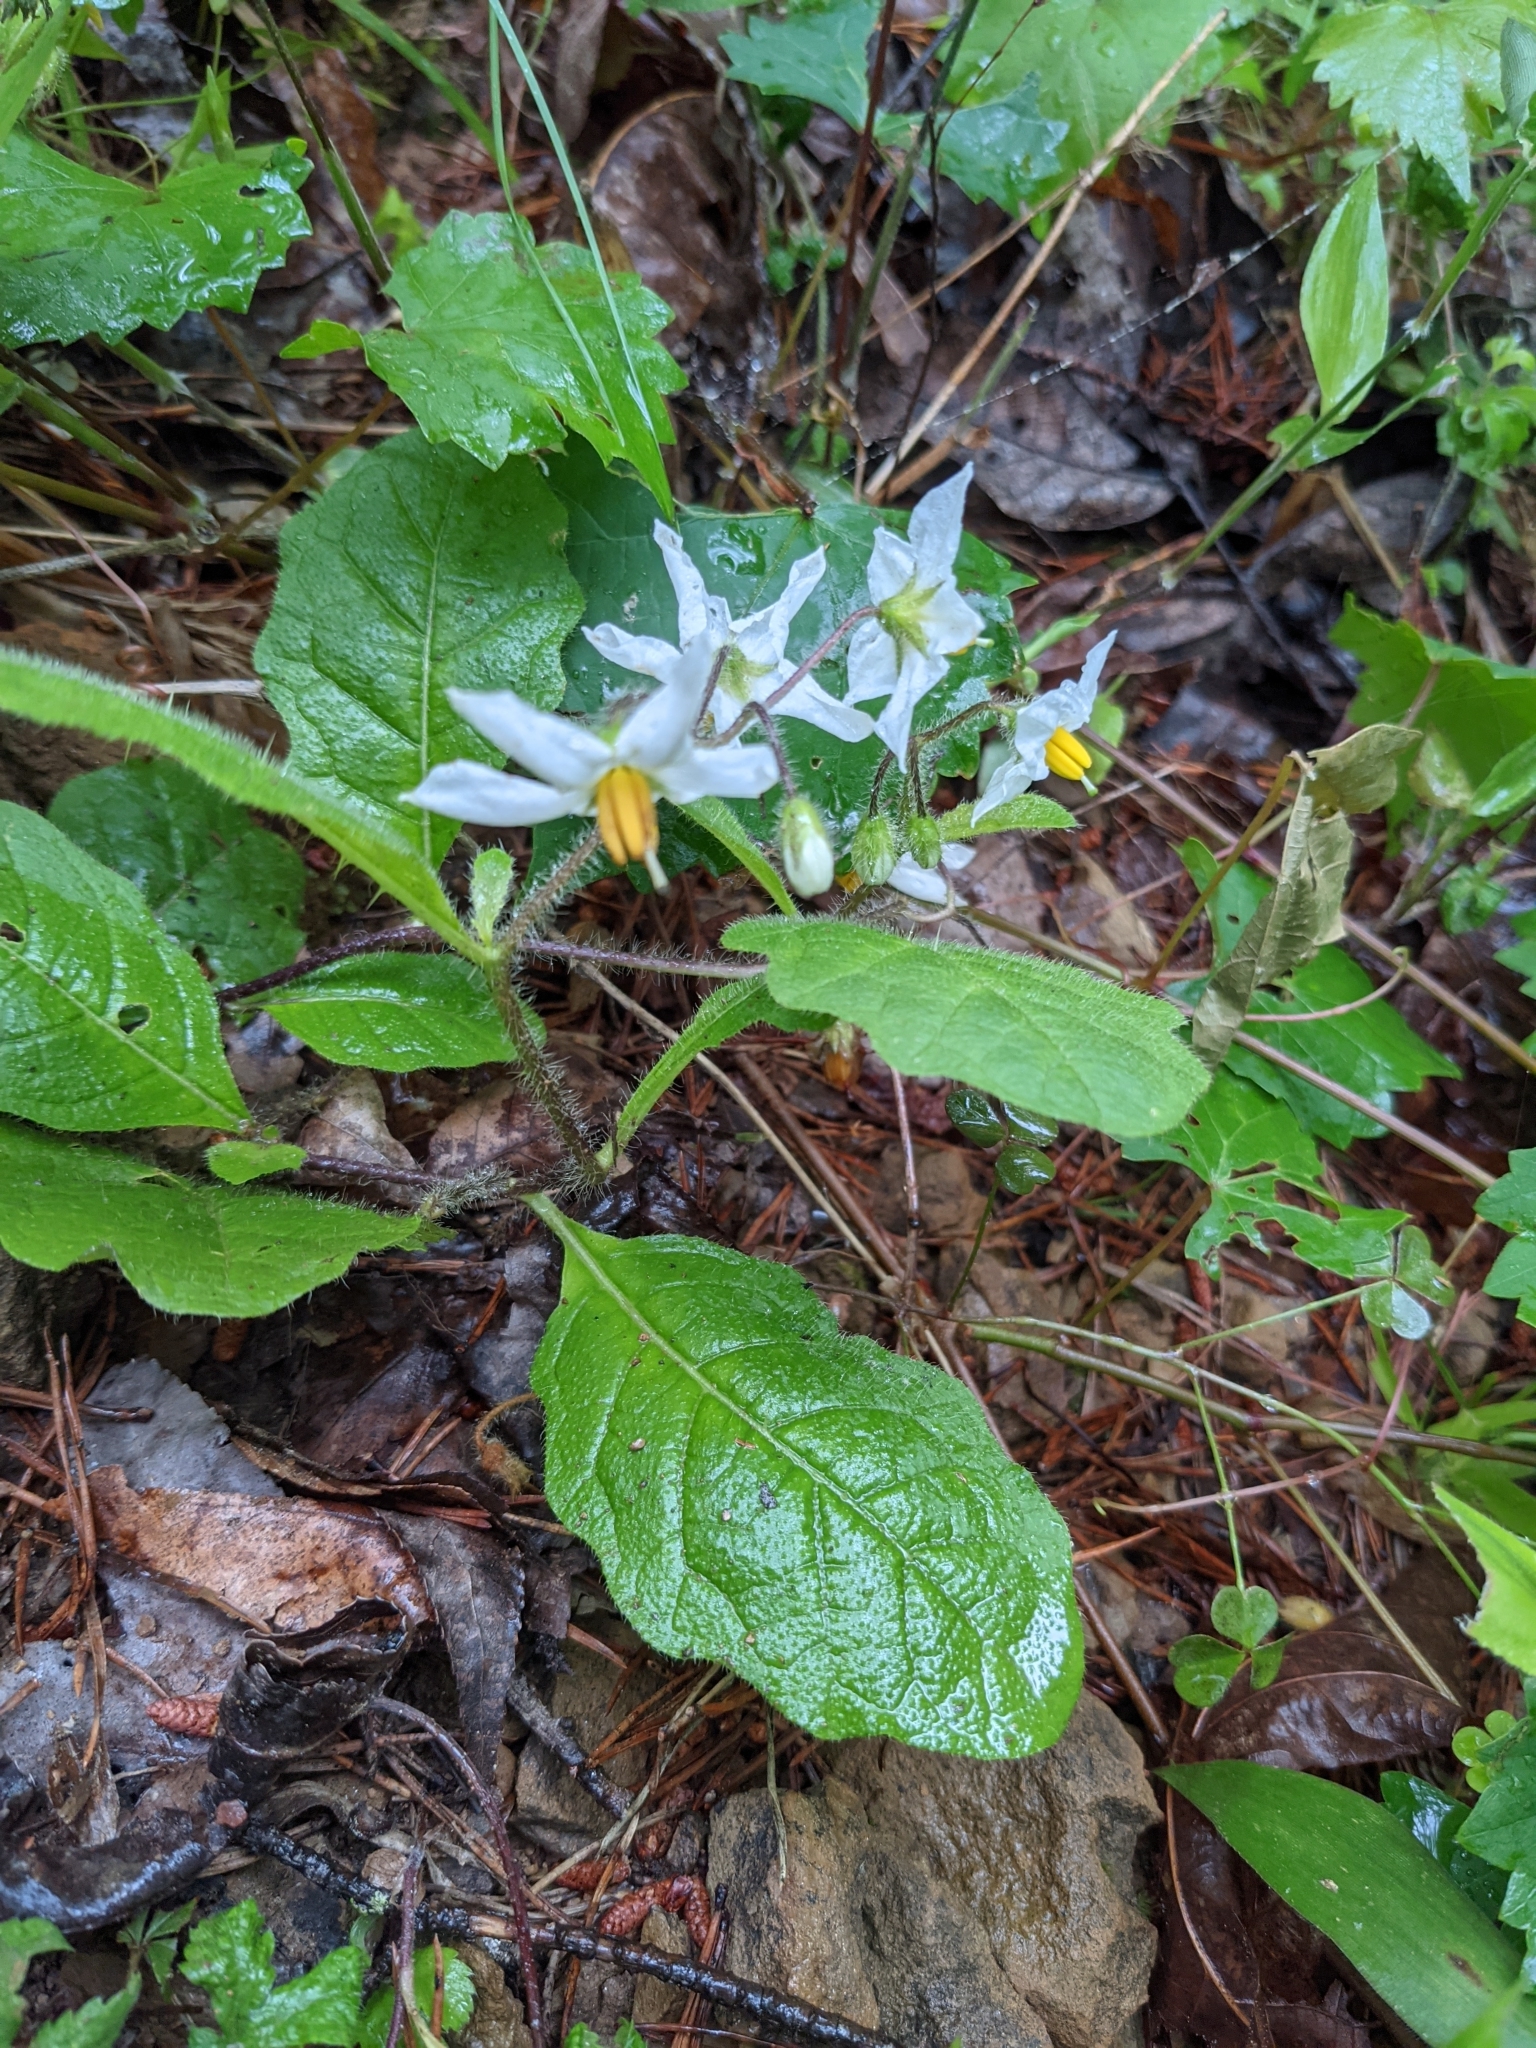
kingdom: Plantae
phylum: Tracheophyta
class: Magnoliopsida
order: Solanales
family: Solanaceae
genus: Solanum
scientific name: Solanum pumilum
